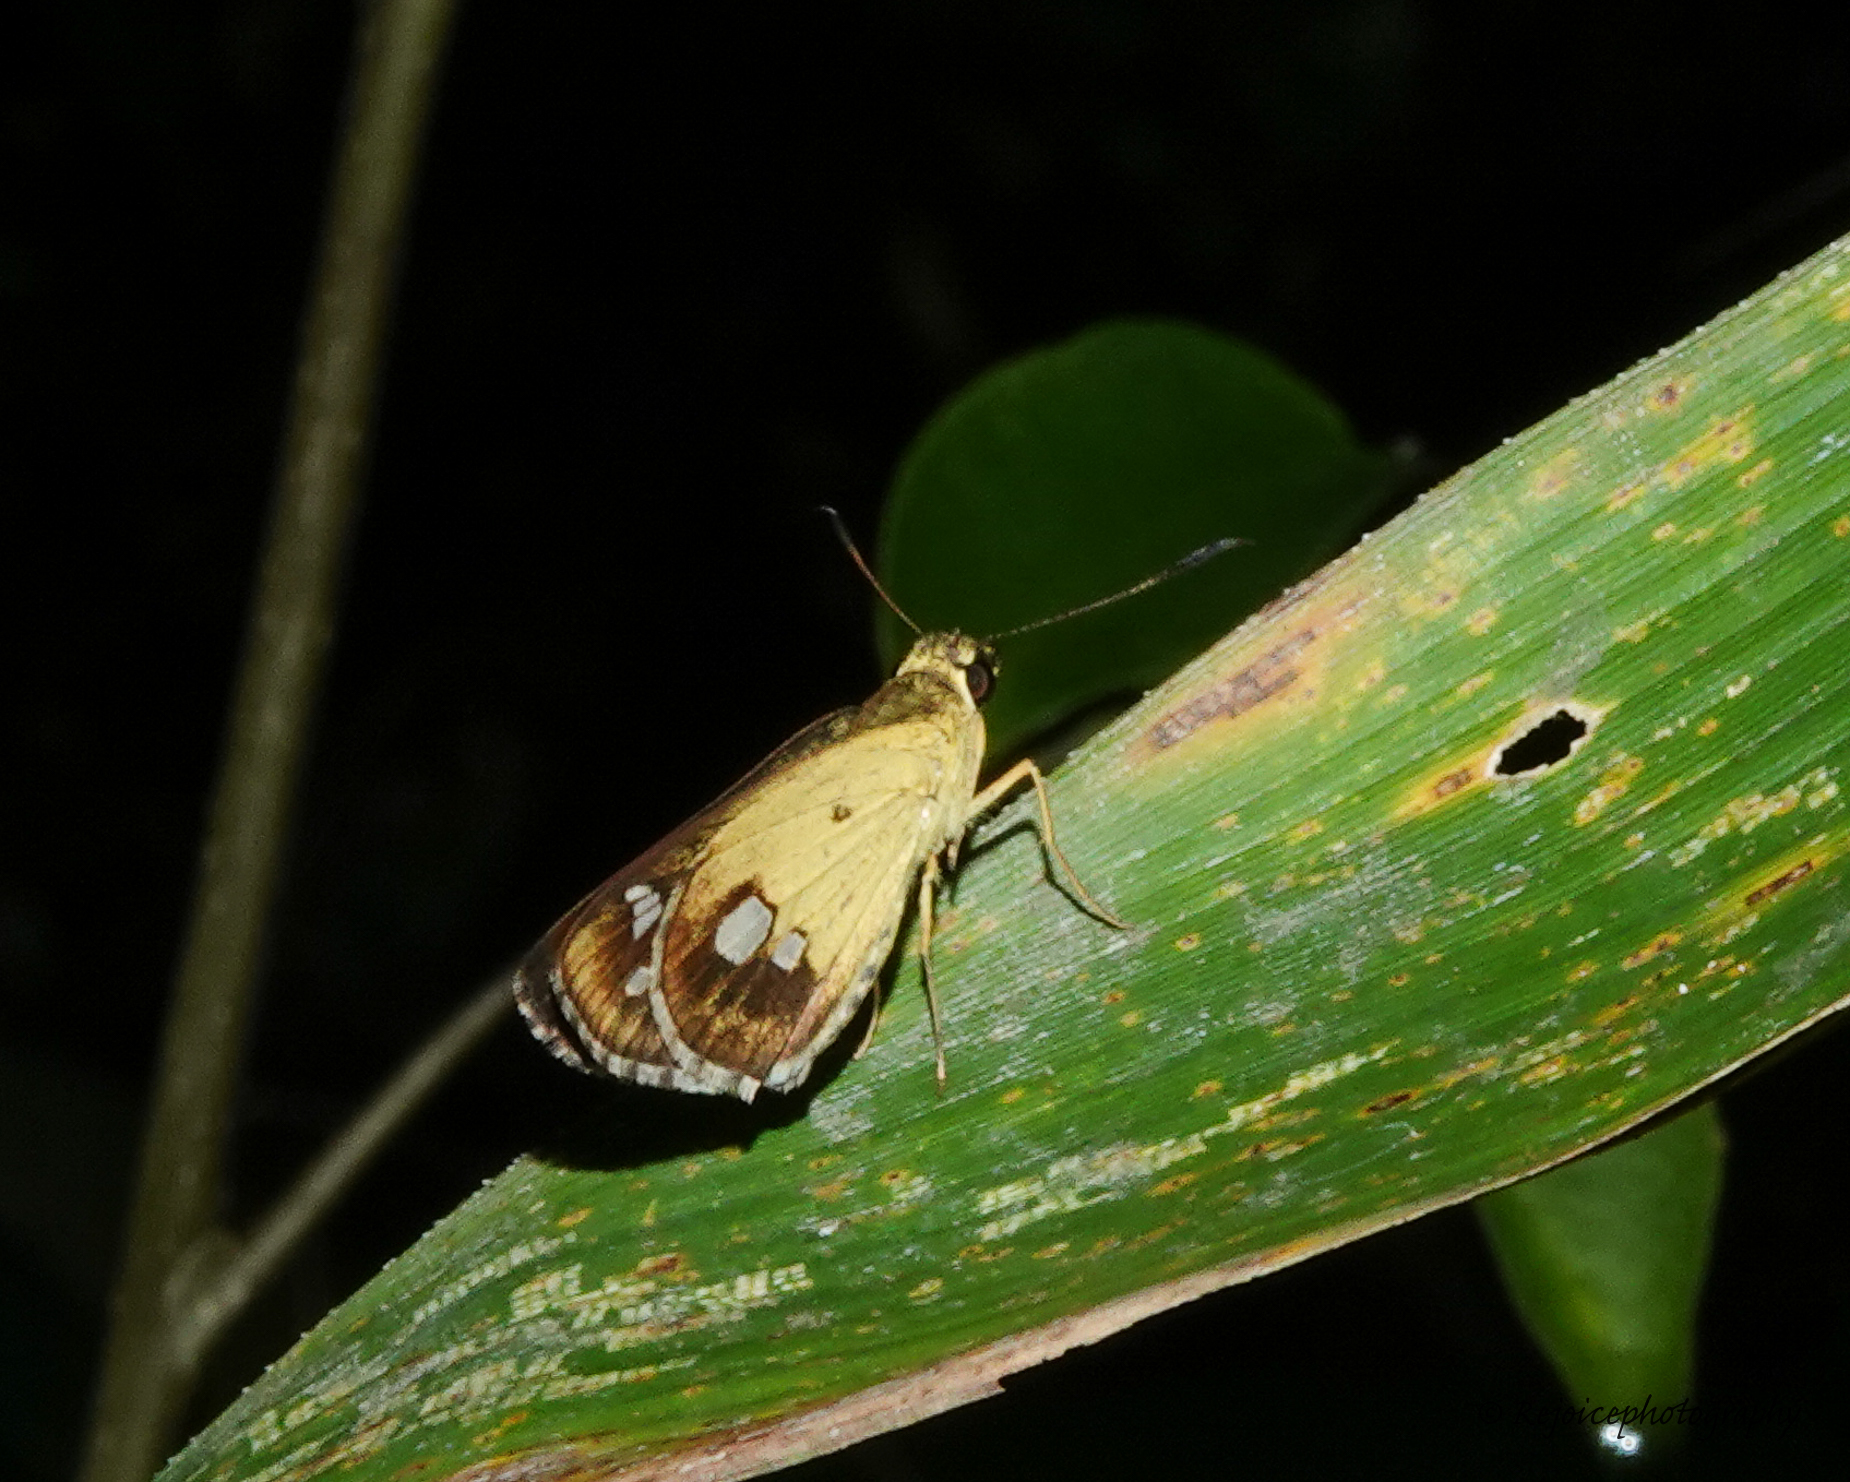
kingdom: Animalia
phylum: Arthropoda
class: Insecta
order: Lepidoptera
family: Hesperiidae
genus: Scobura
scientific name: Scobura isota
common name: Swinhoe's forest bob
